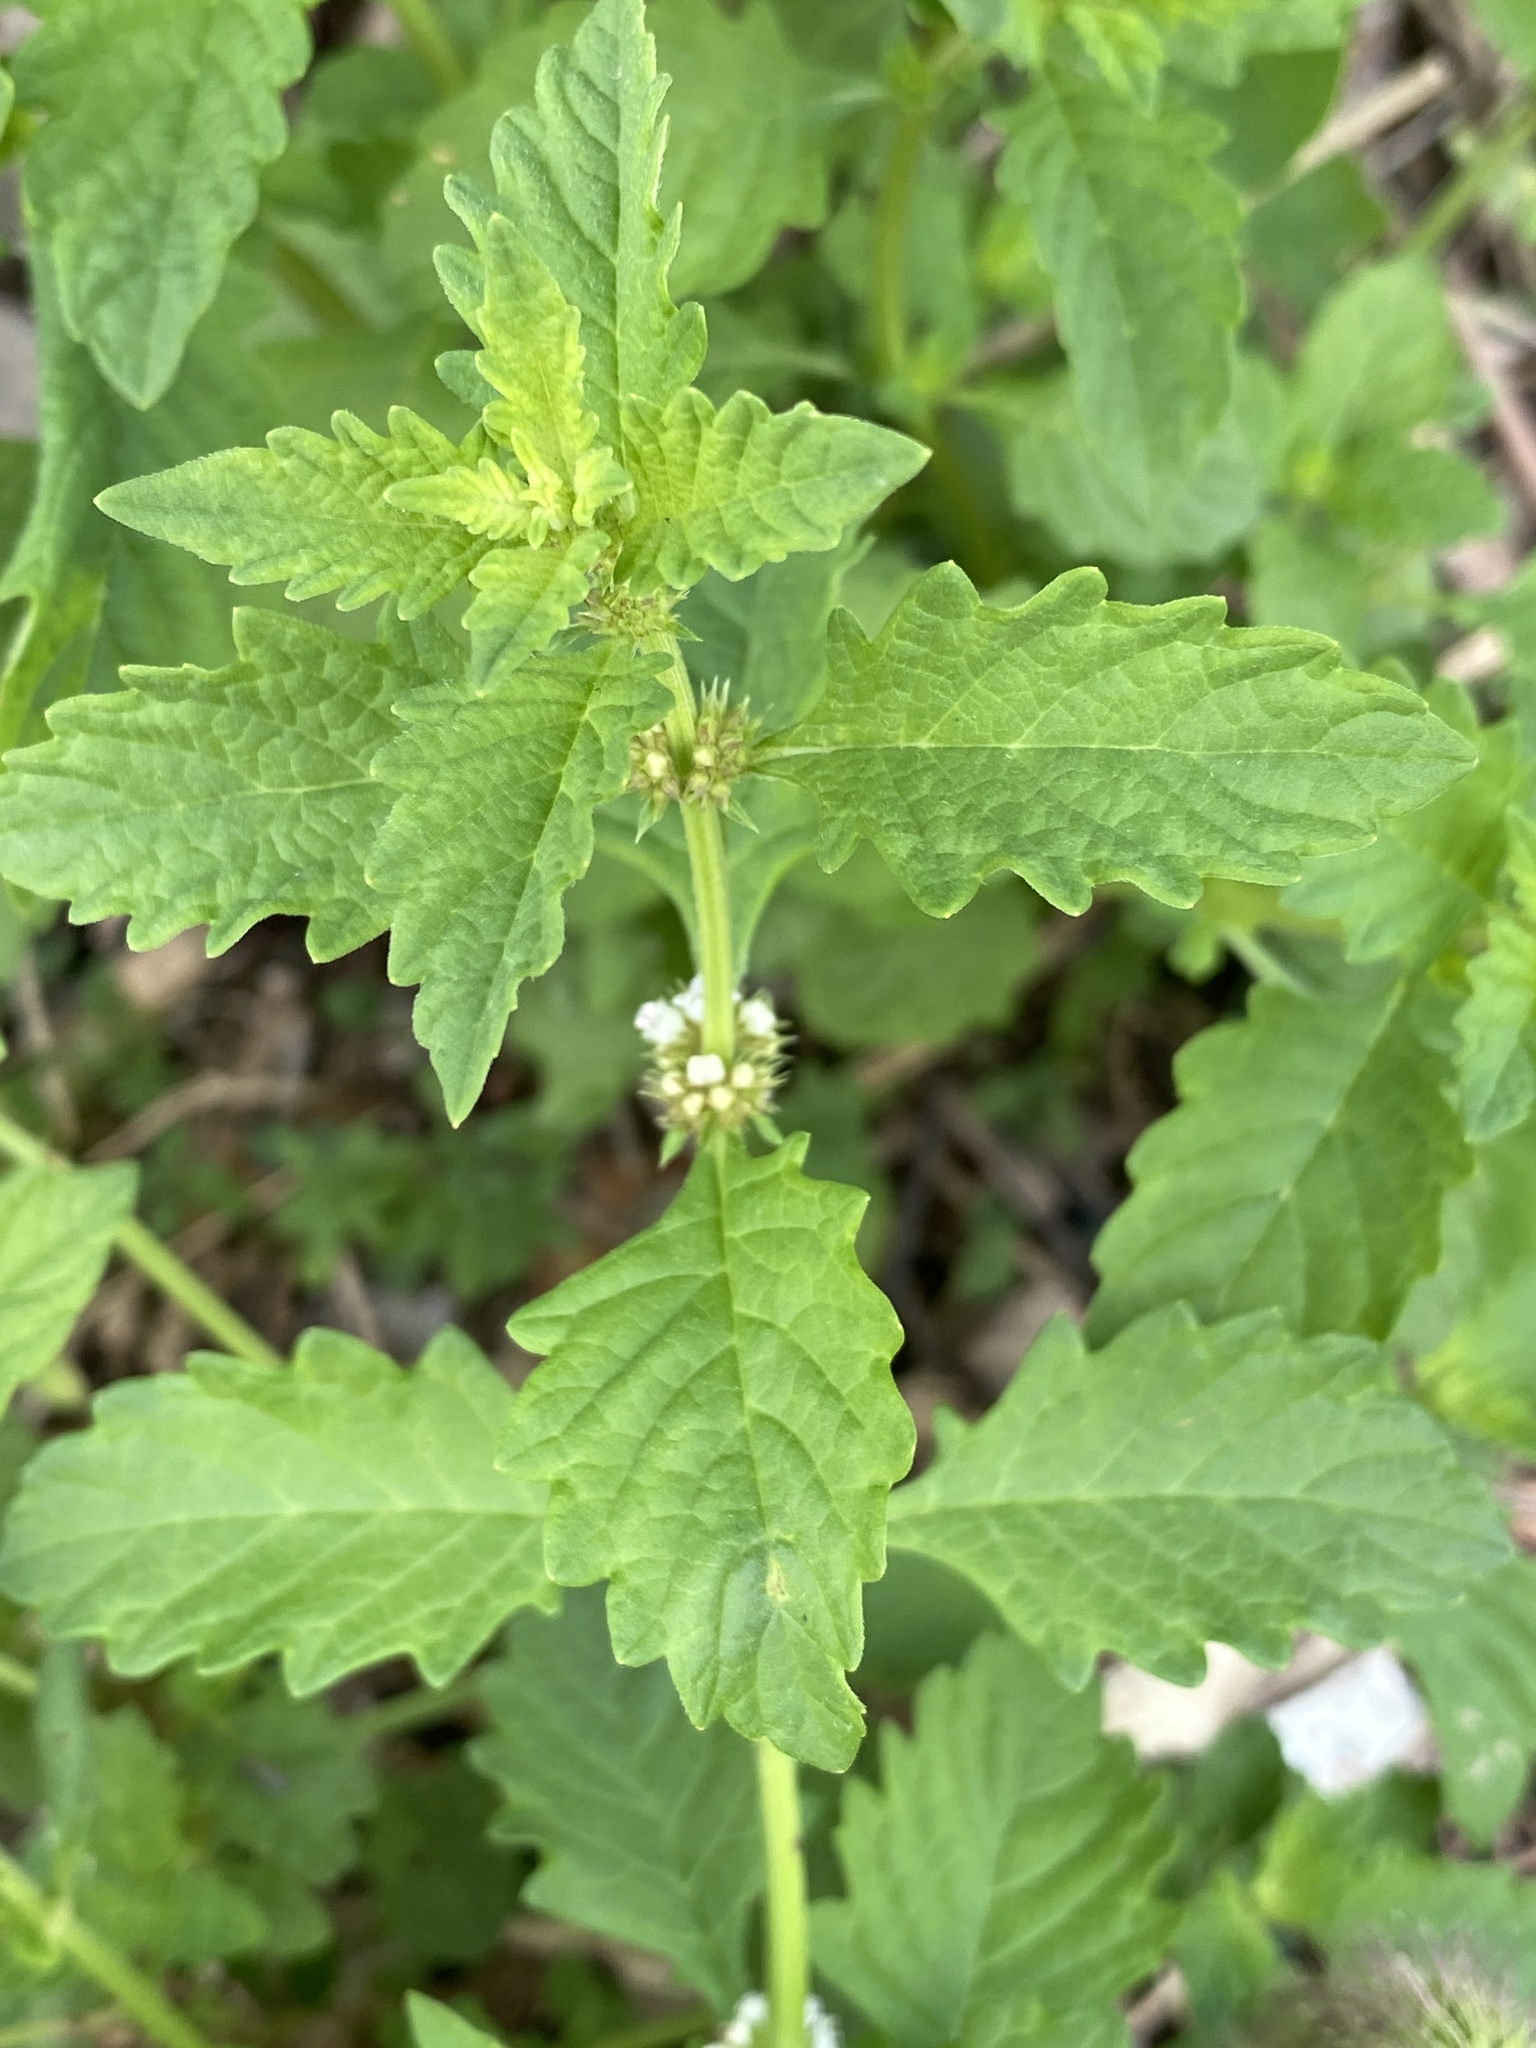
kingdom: Plantae
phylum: Tracheophyta
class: Magnoliopsida
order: Lamiales
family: Lamiaceae
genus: Lycopus
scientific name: Lycopus europaeus
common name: European bugleweed
